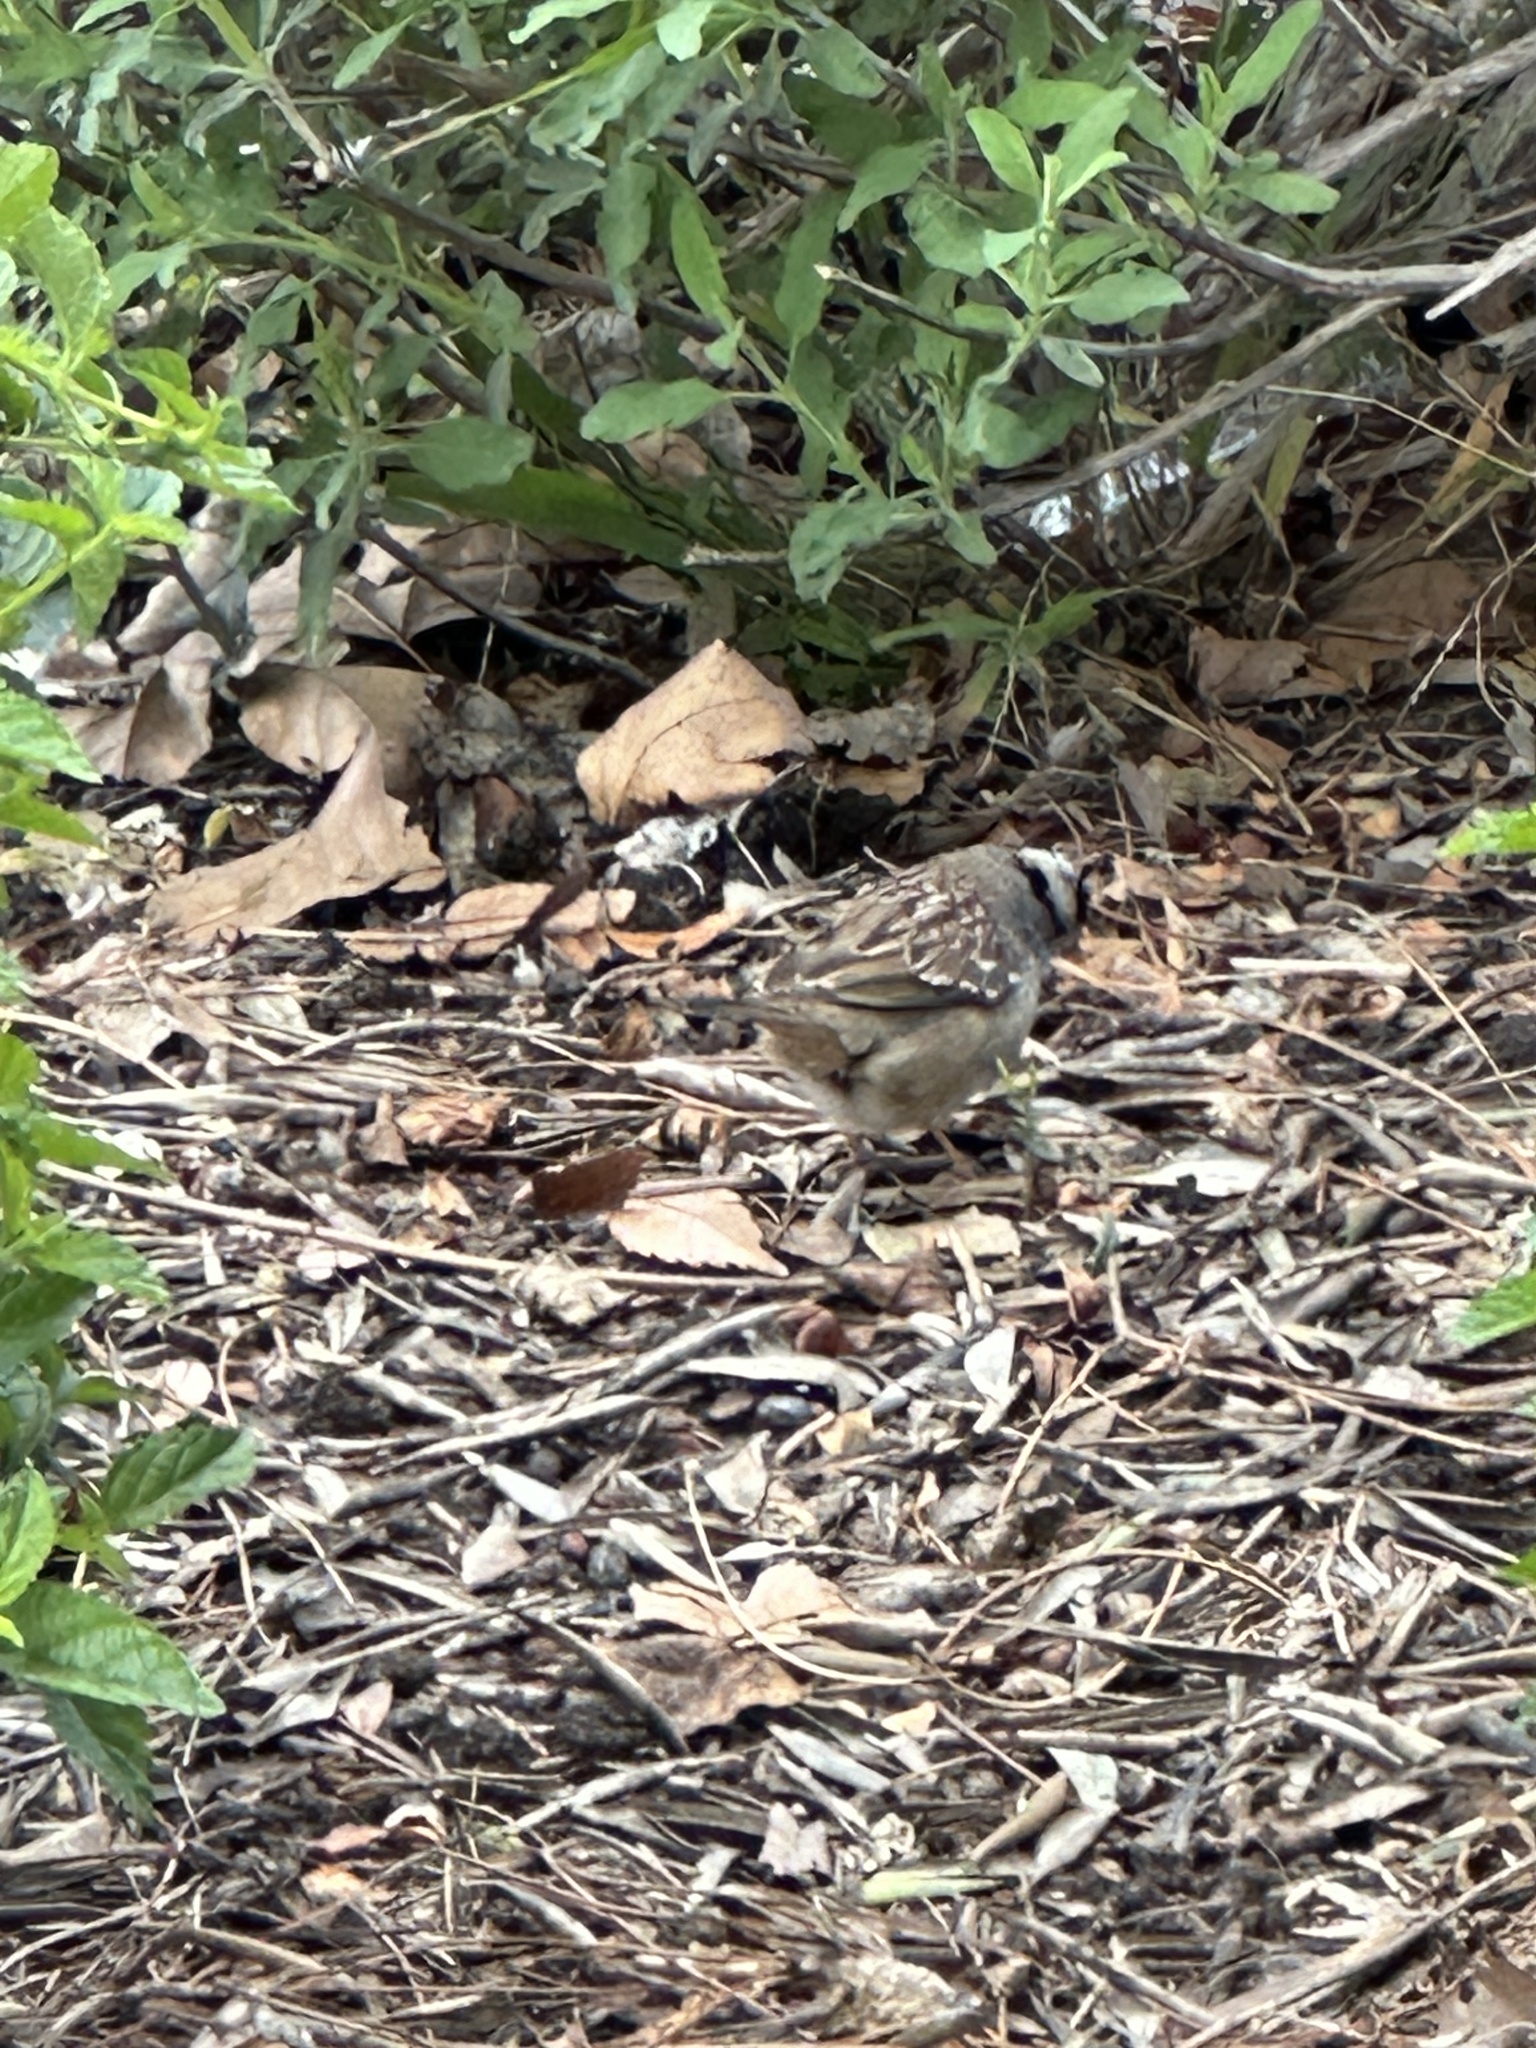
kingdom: Animalia
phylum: Chordata
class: Aves
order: Passeriformes
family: Passerellidae
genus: Zonotrichia
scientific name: Zonotrichia leucophrys
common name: White-crowned sparrow
